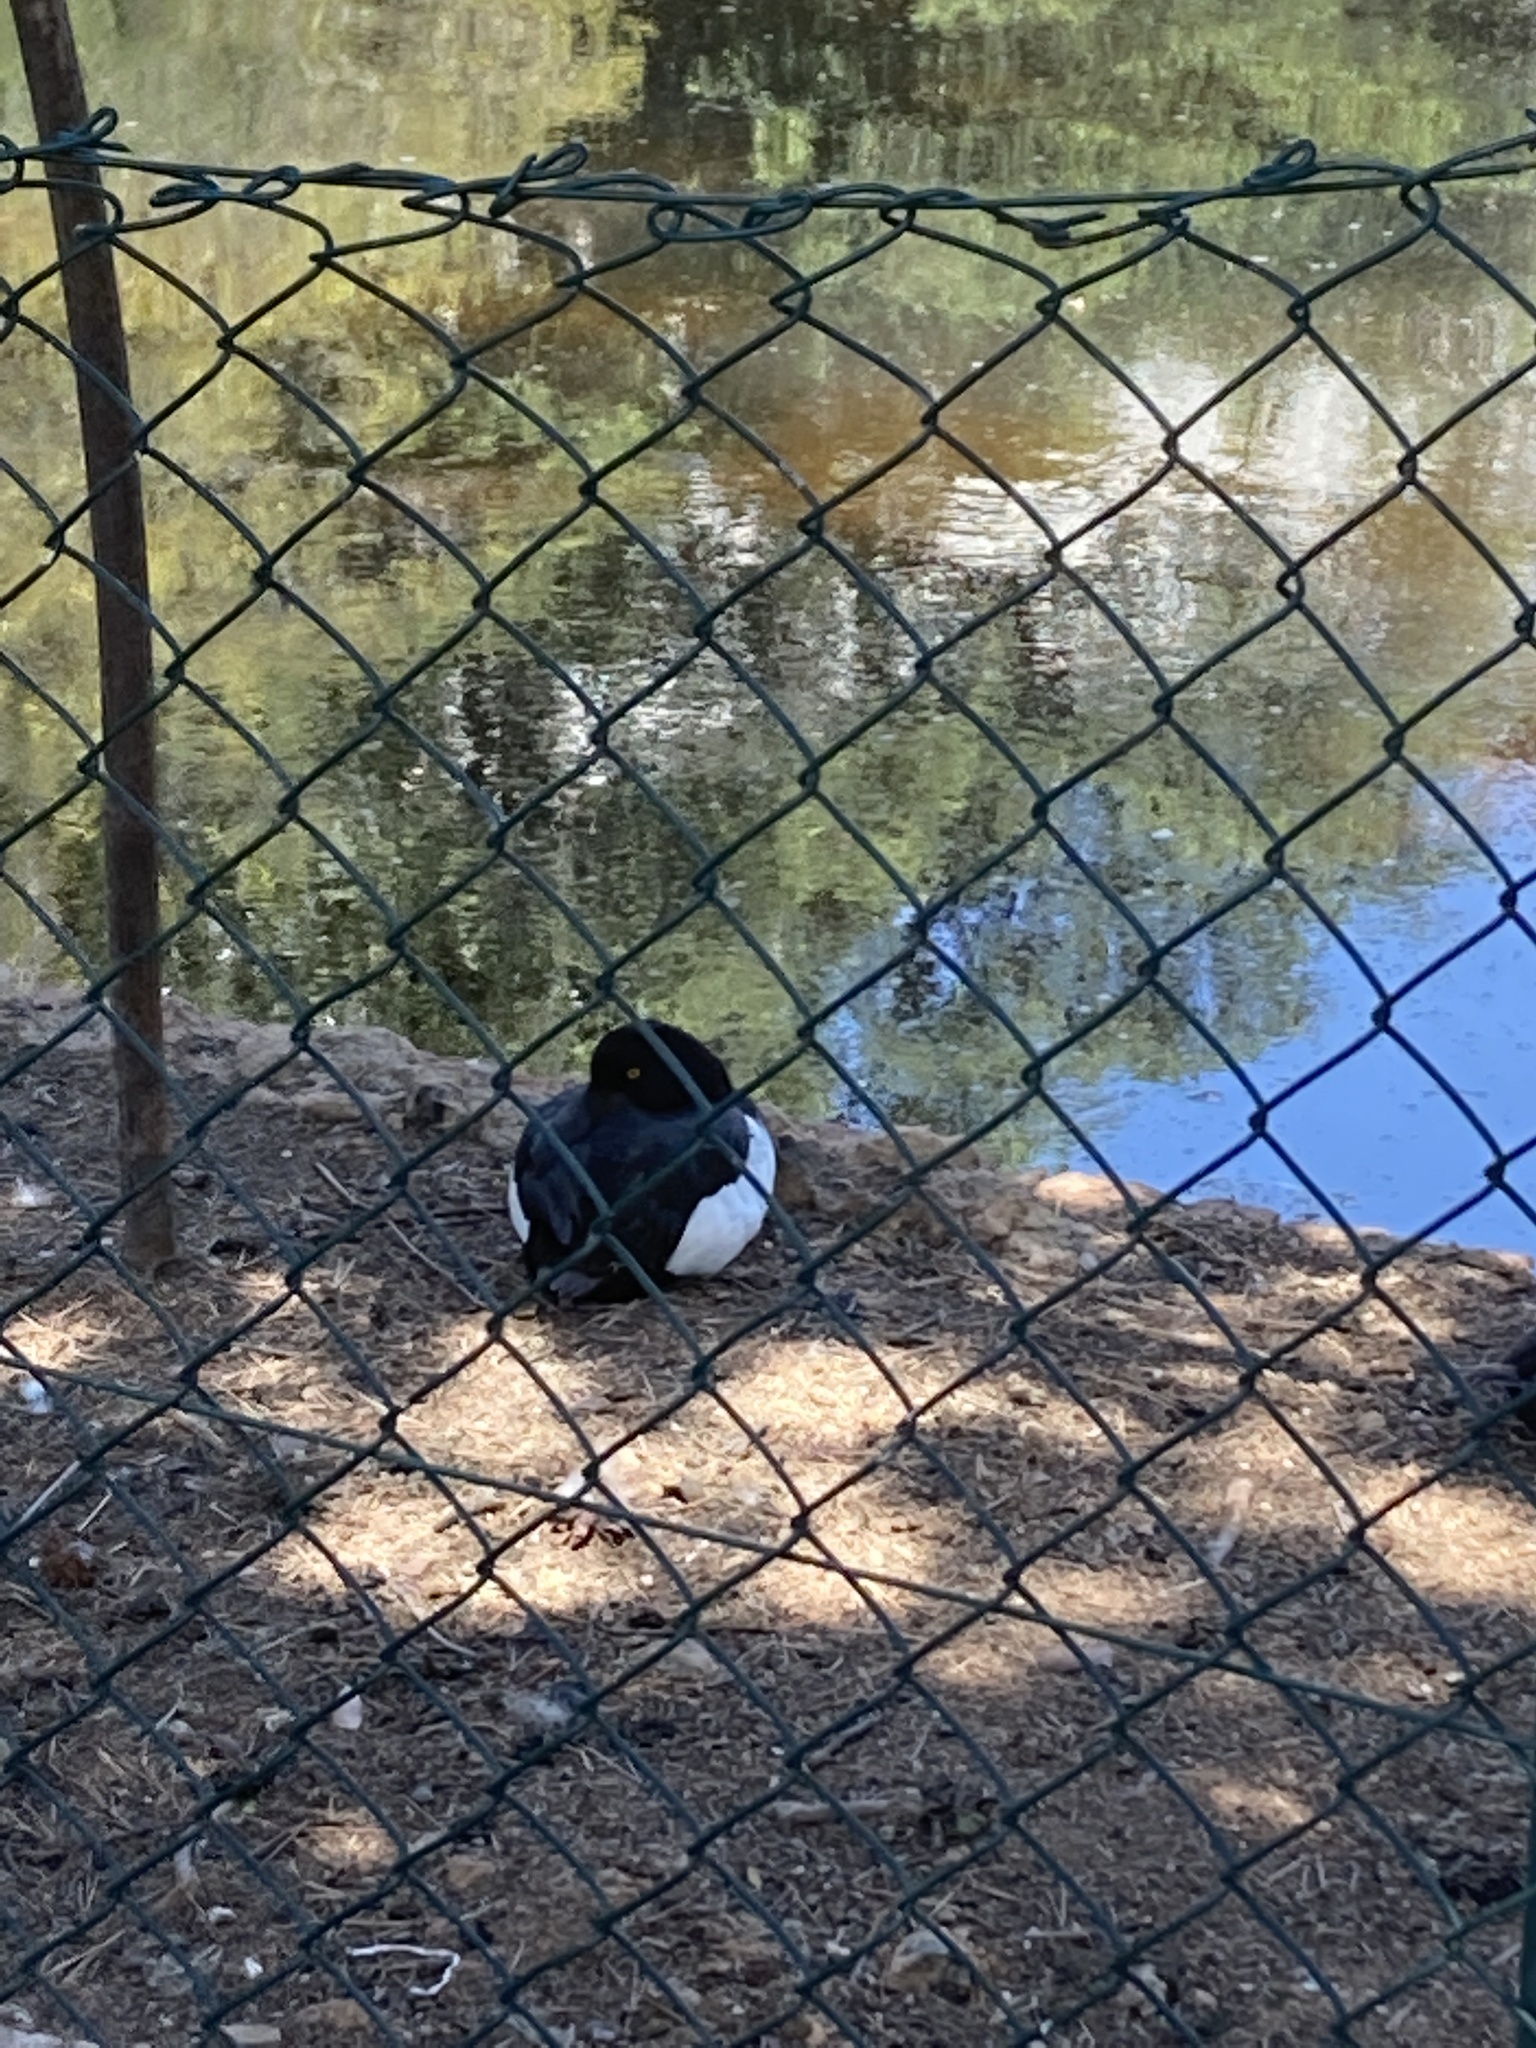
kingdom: Animalia
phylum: Chordata
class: Aves
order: Anseriformes
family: Anatidae
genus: Aythya
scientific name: Aythya fuligula
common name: Tufted duck
